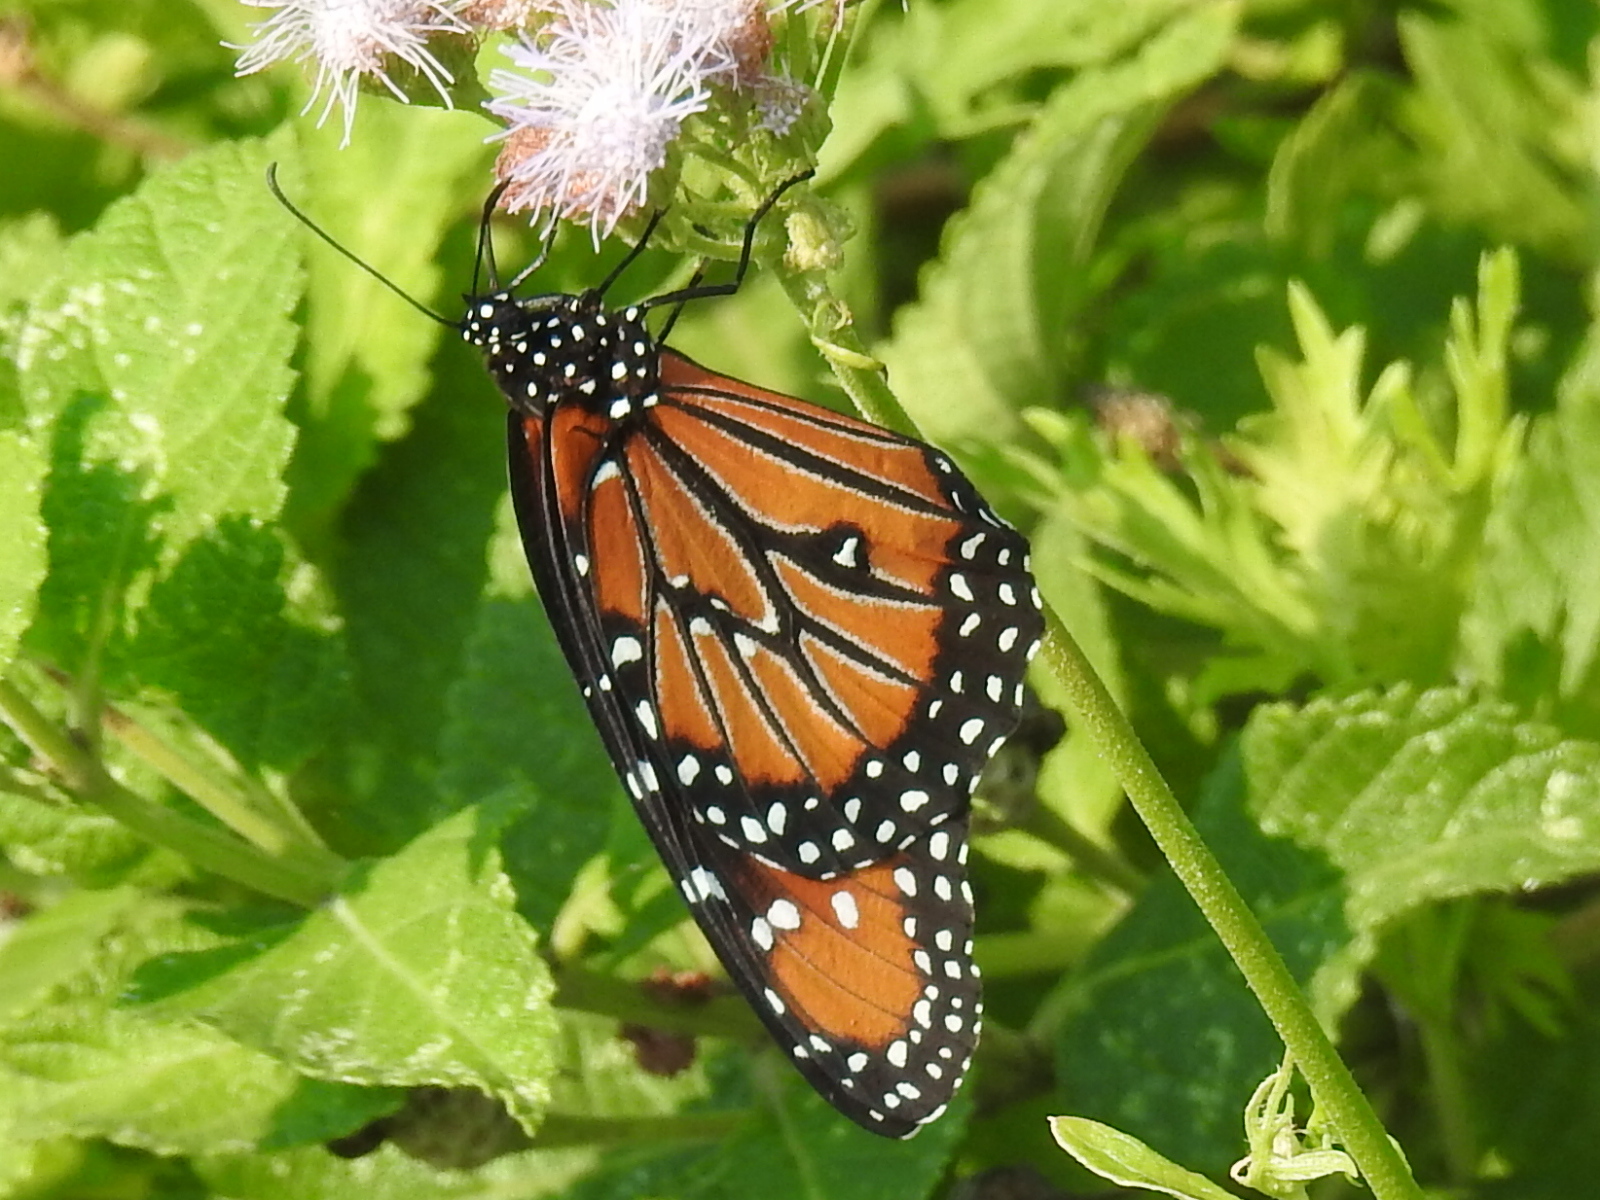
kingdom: Animalia
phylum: Arthropoda
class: Insecta
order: Lepidoptera
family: Nymphalidae
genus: Danaus
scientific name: Danaus gilippus
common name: Queen
